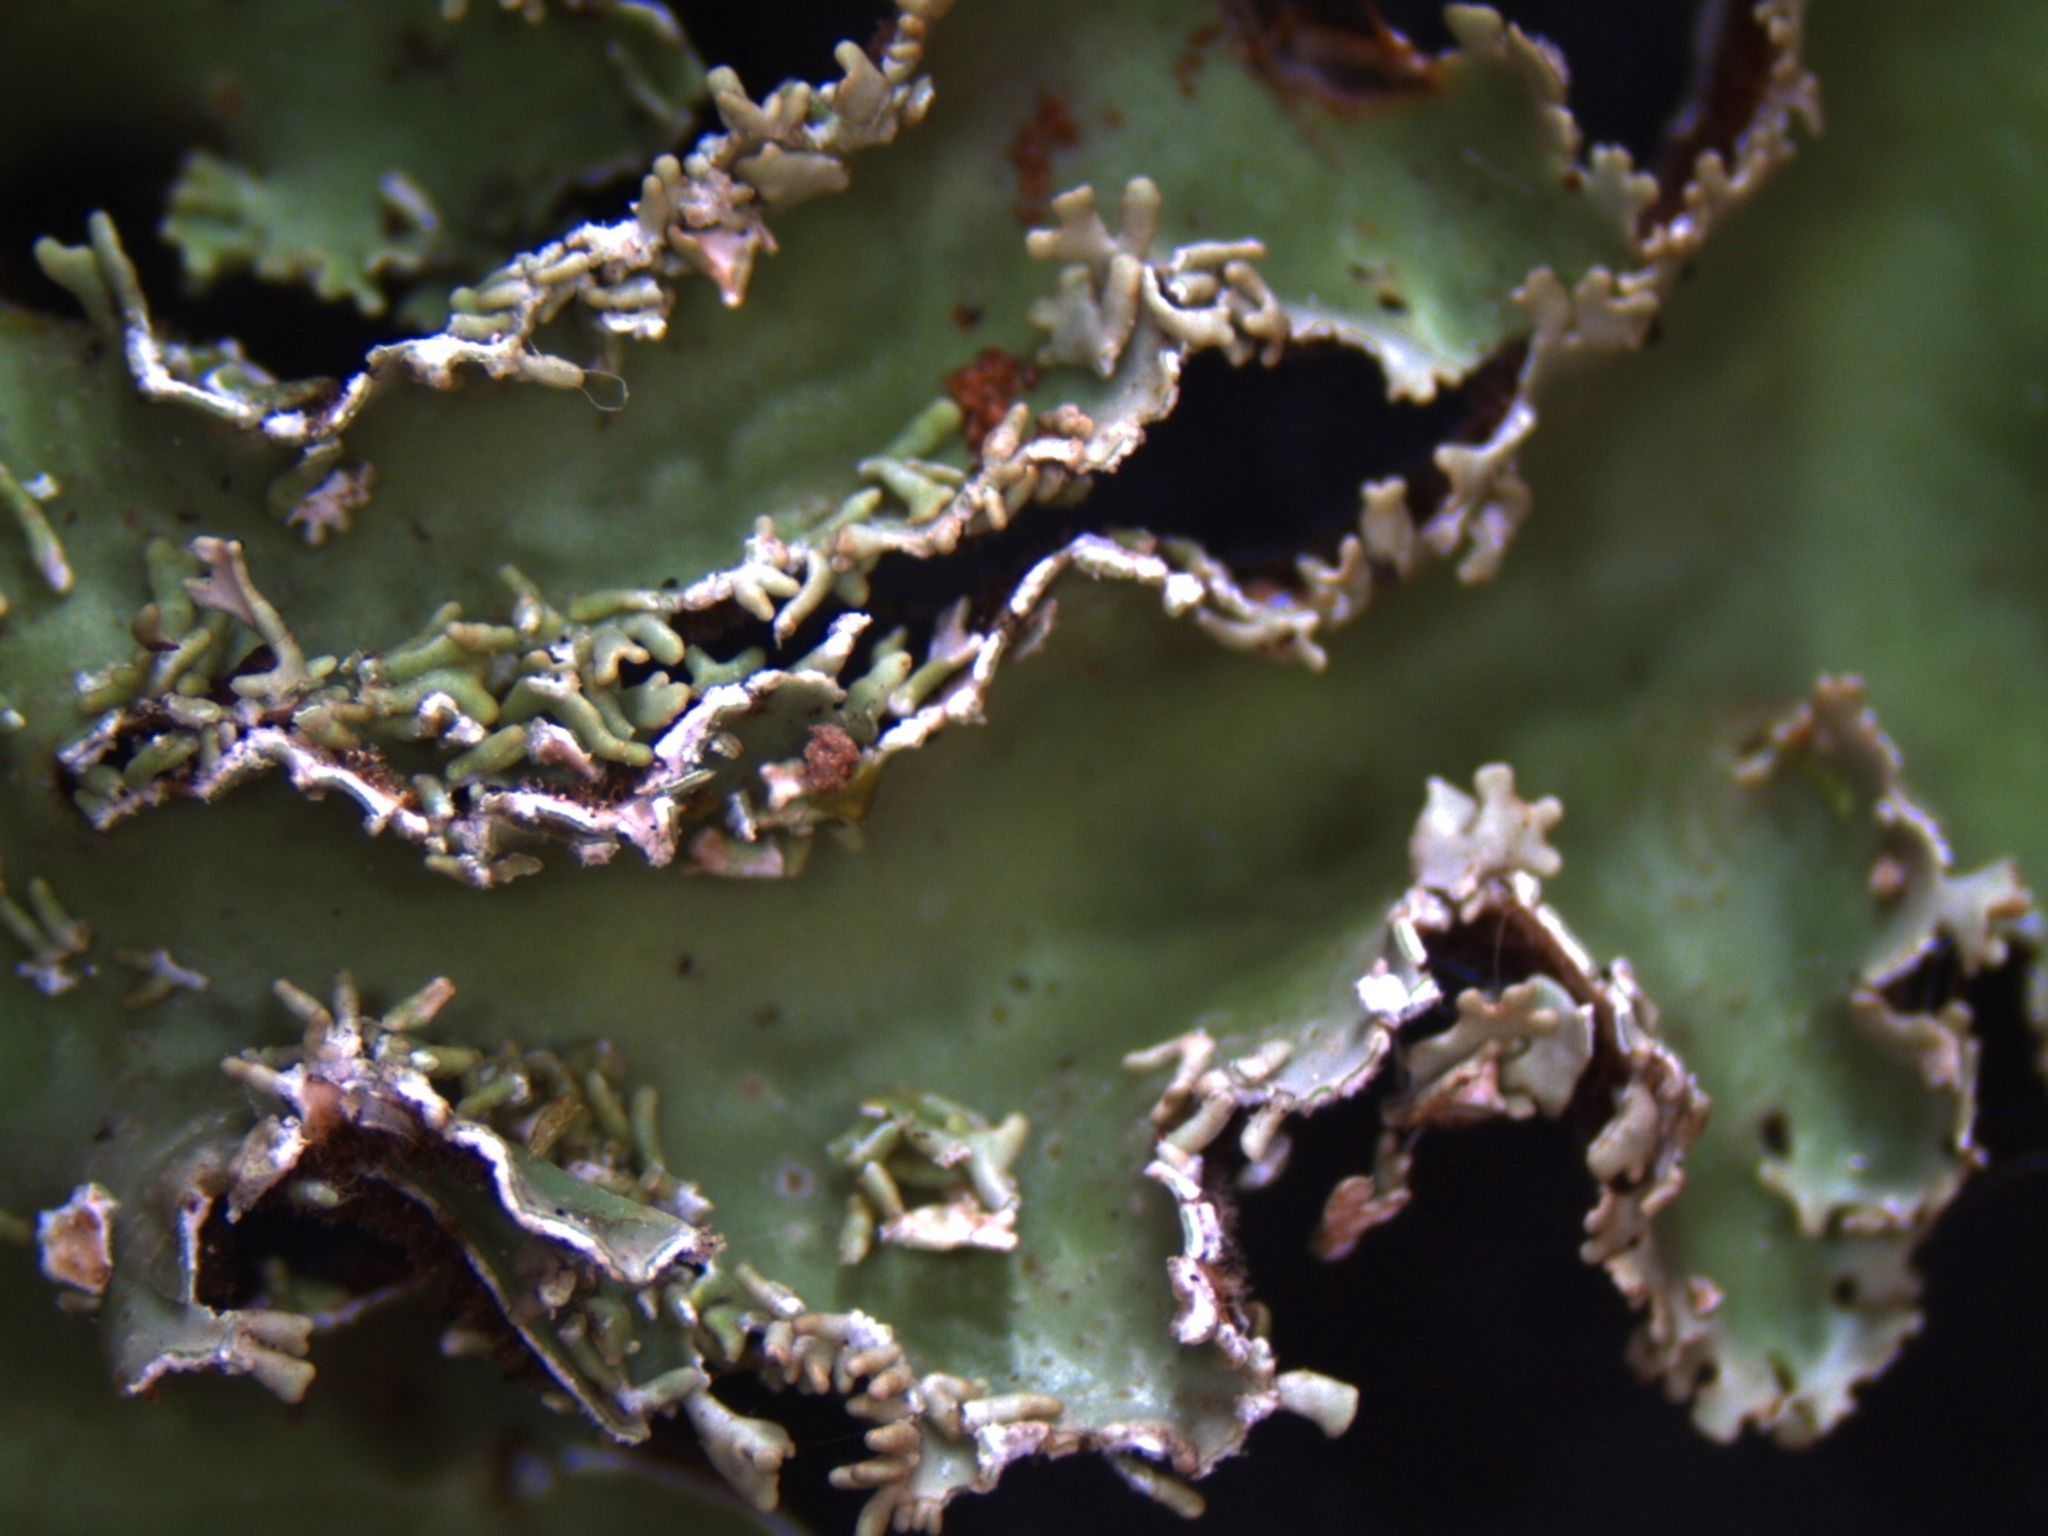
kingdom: Fungi
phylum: Ascomycota
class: Lecanoromycetes
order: Peltigerales
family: Lobariaceae
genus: Pseudocyphellaria
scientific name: Pseudocyphellaria glabra
